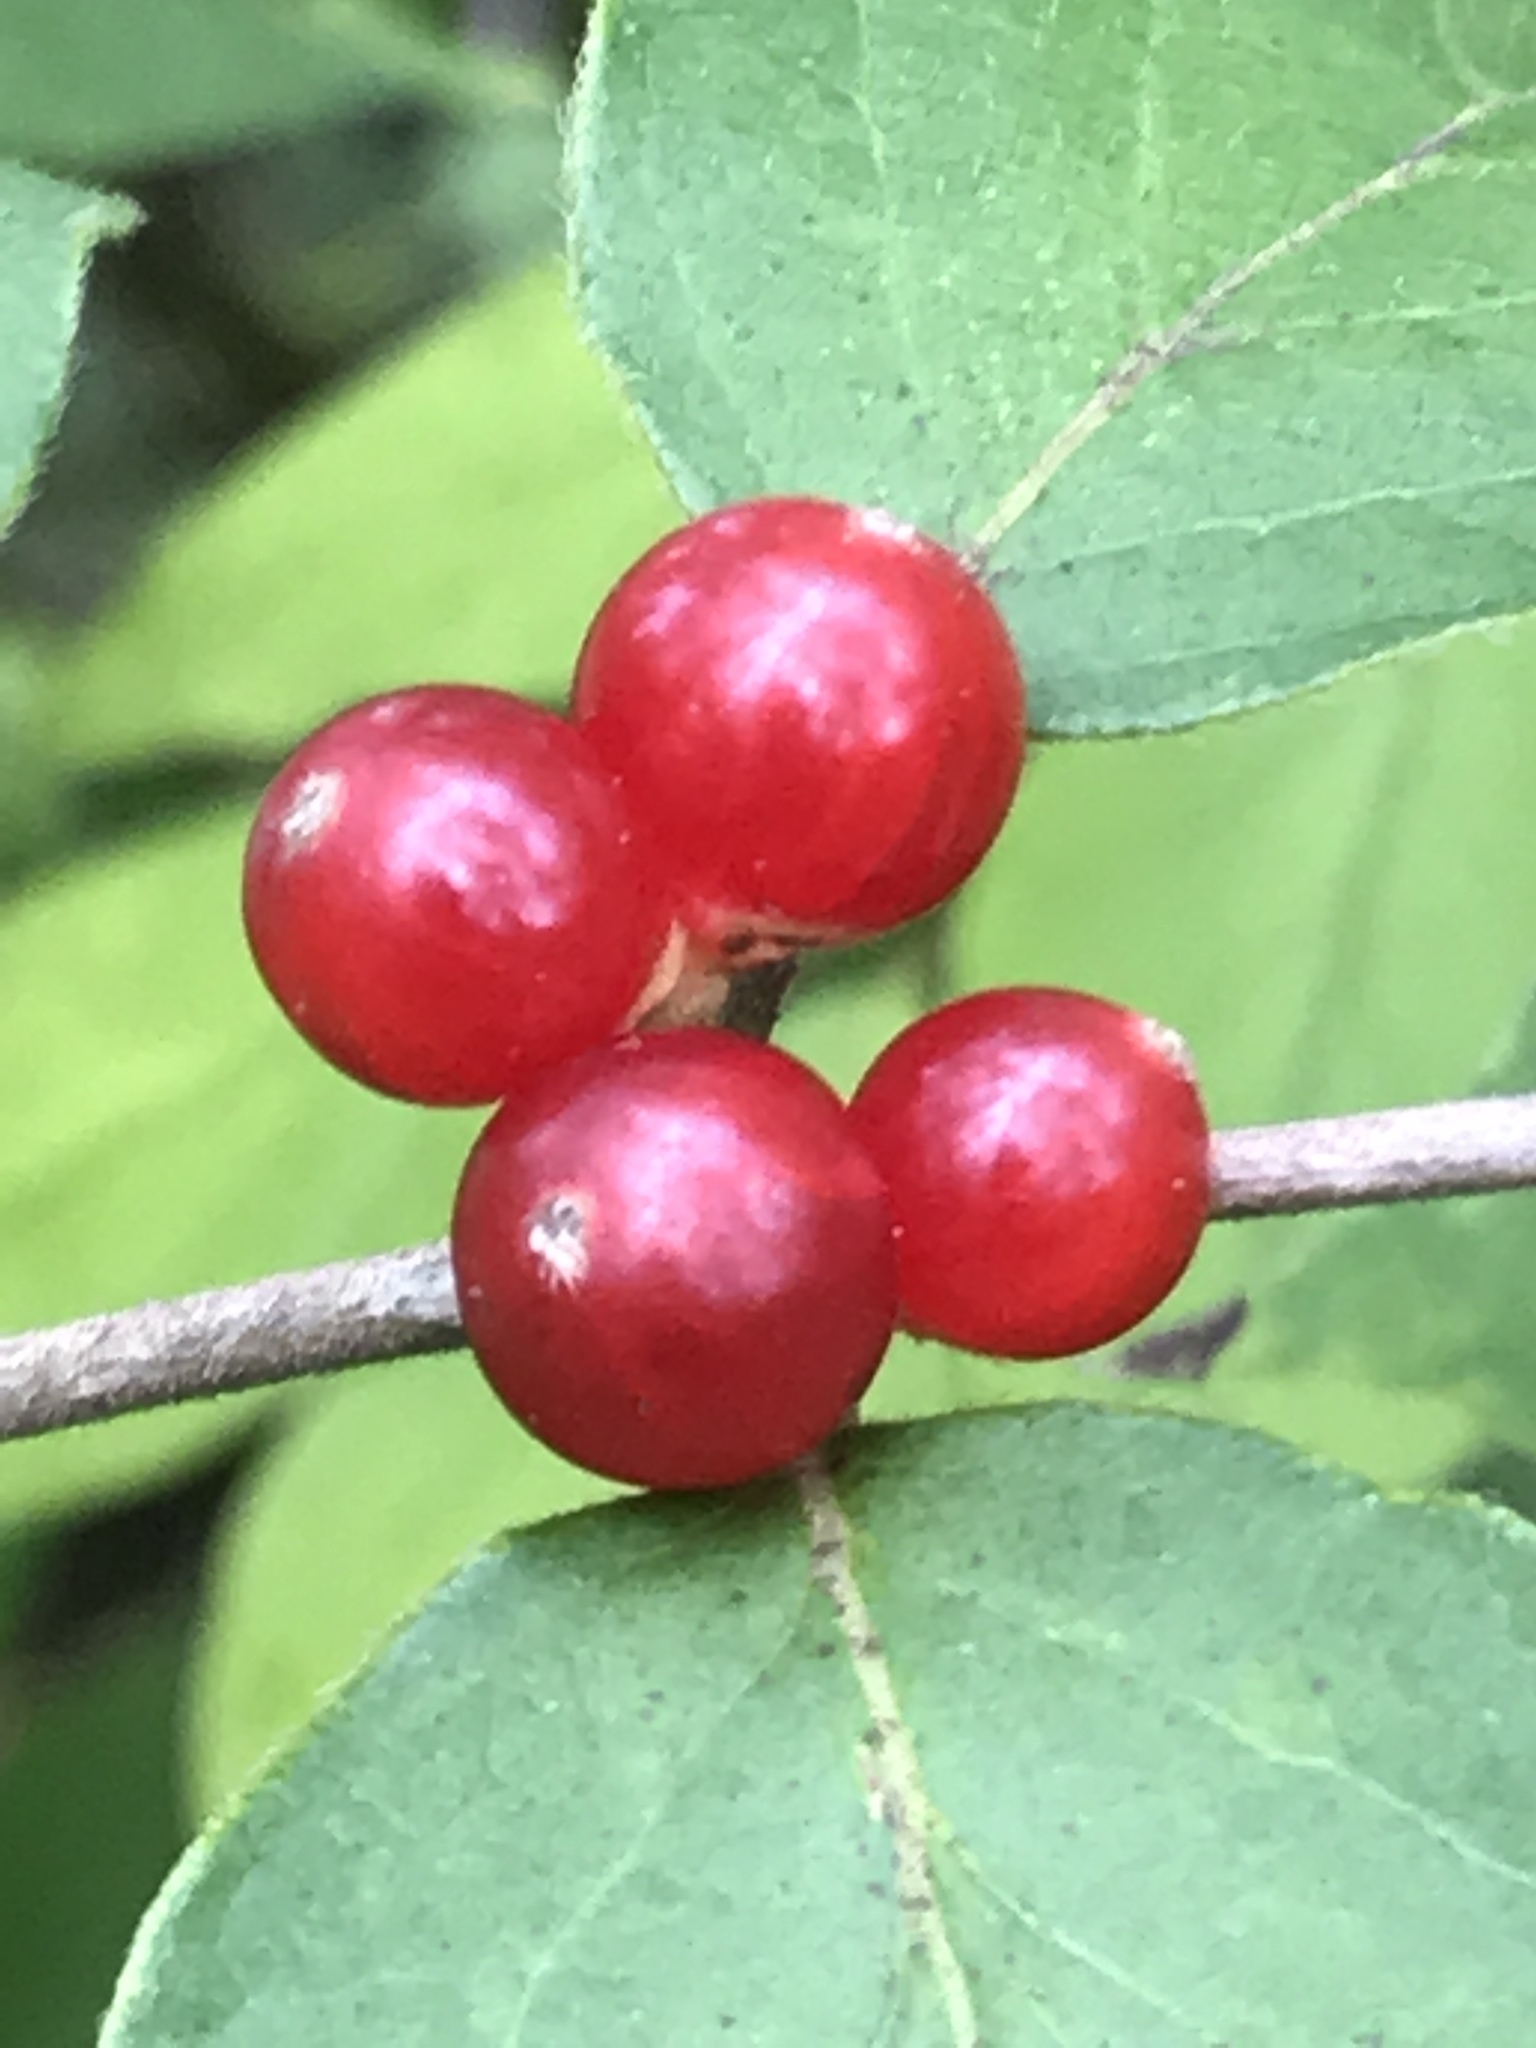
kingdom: Plantae
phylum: Tracheophyta
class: Magnoliopsida
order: Dipsacales
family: Caprifoliaceae
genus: Lonicera
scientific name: Lonicera maackii
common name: Amur honeysuckle
